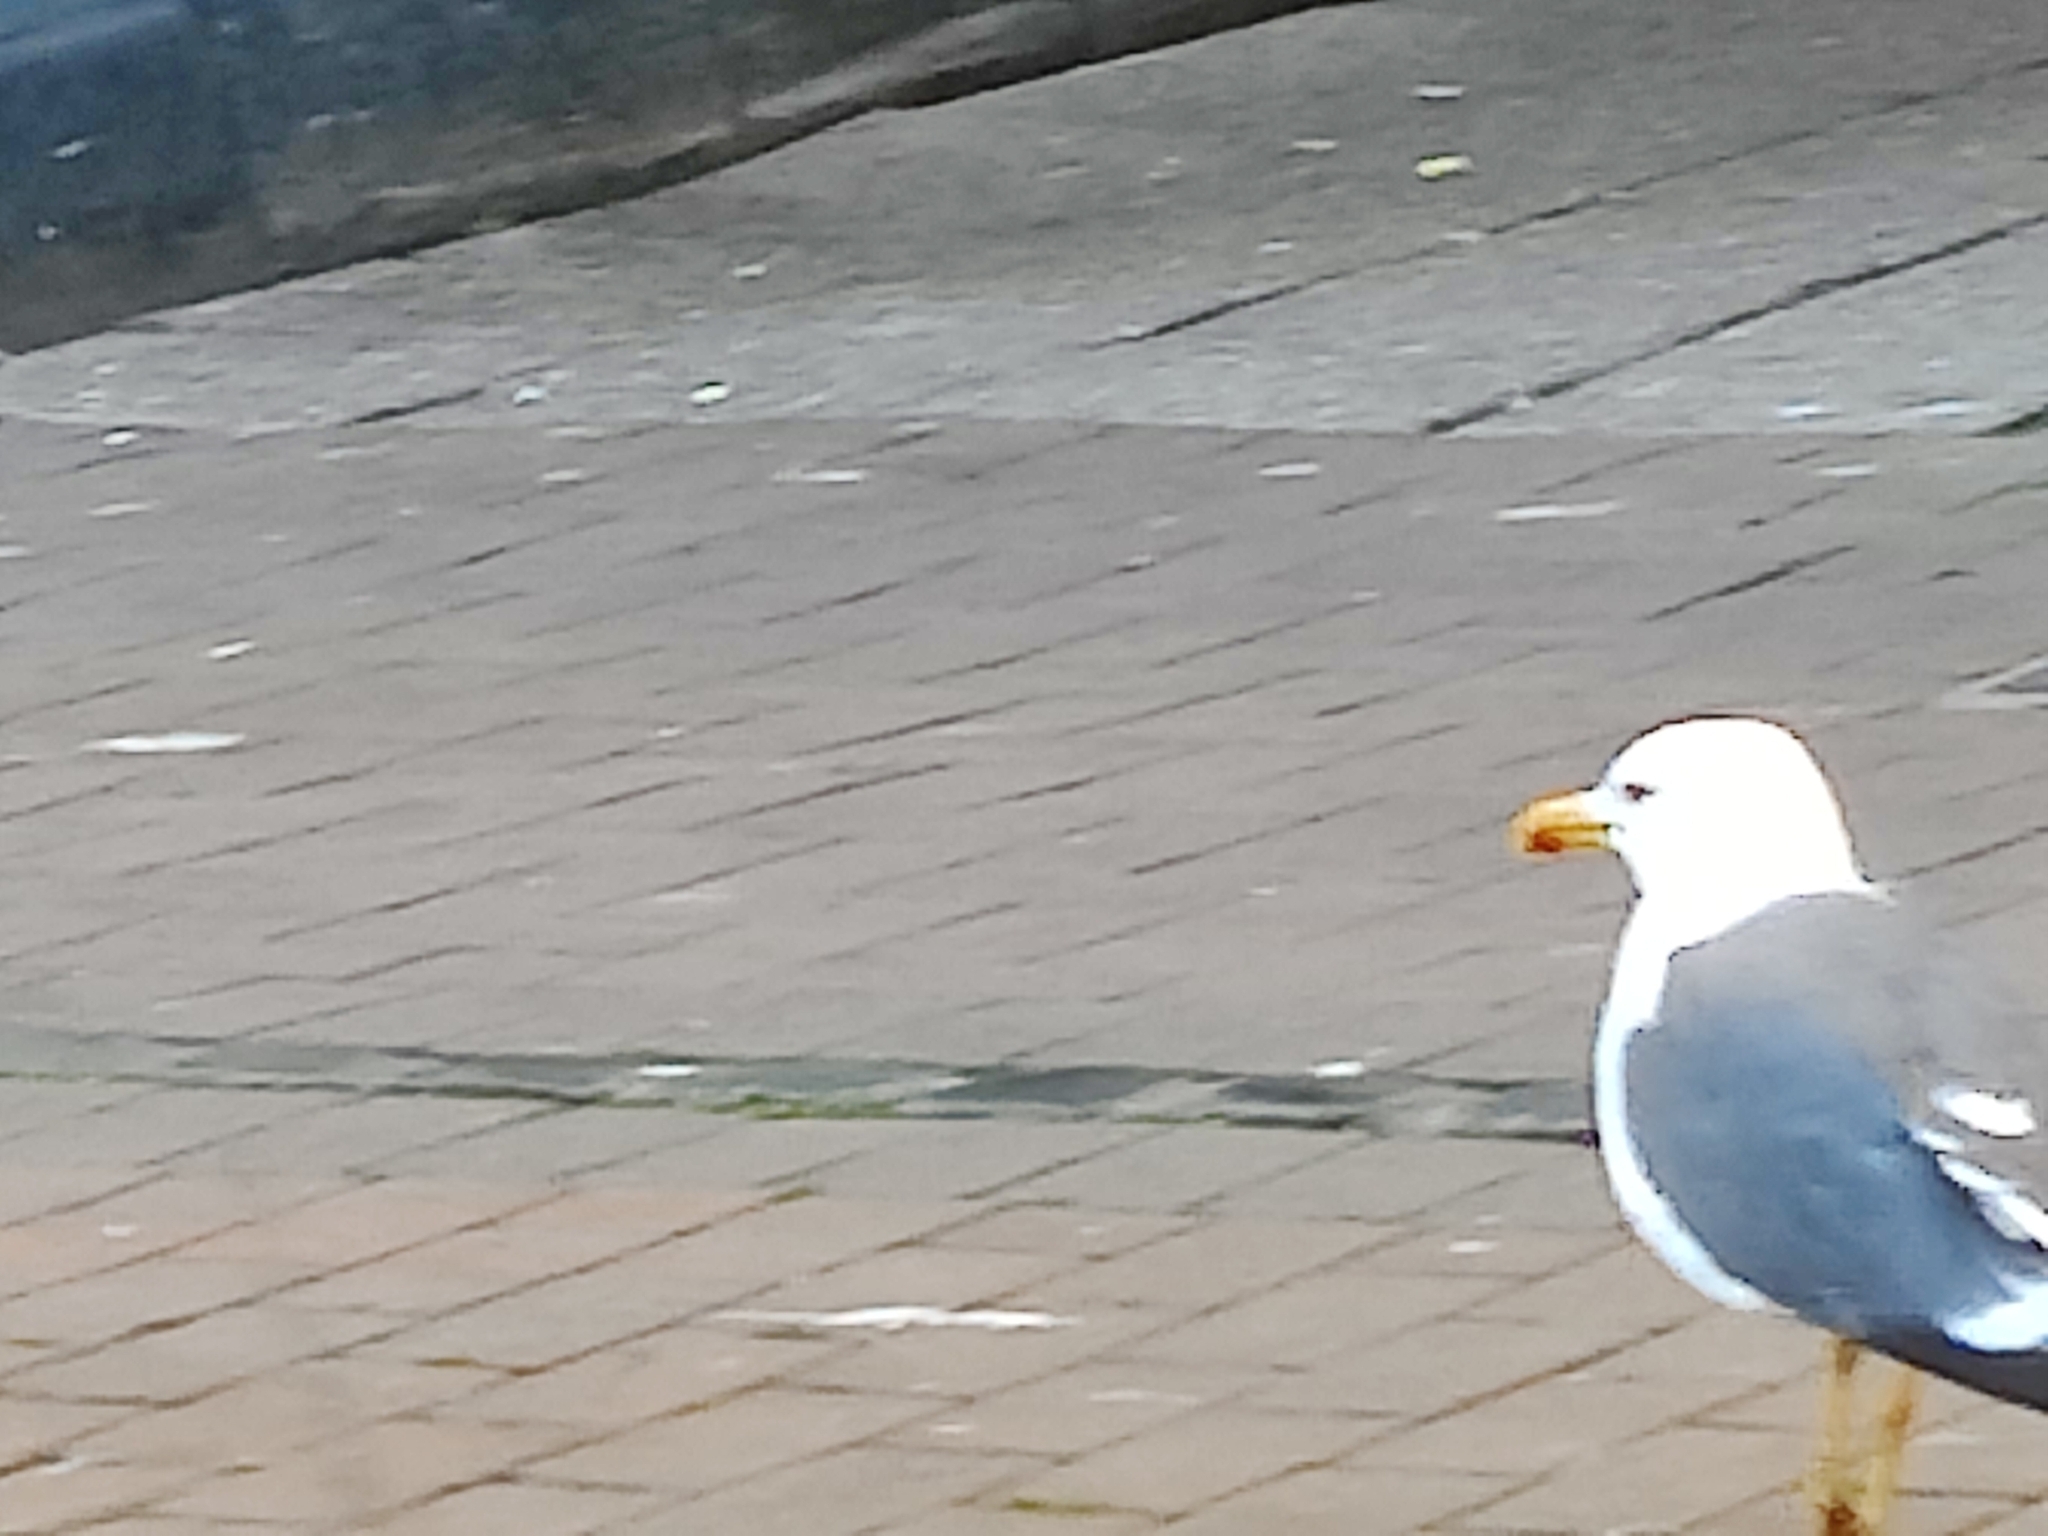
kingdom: Animalia
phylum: Chordata
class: Aves
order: Charadriiformes
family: Laridae
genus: Larus
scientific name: Larus fuscus
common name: Lesser black-backed gull
